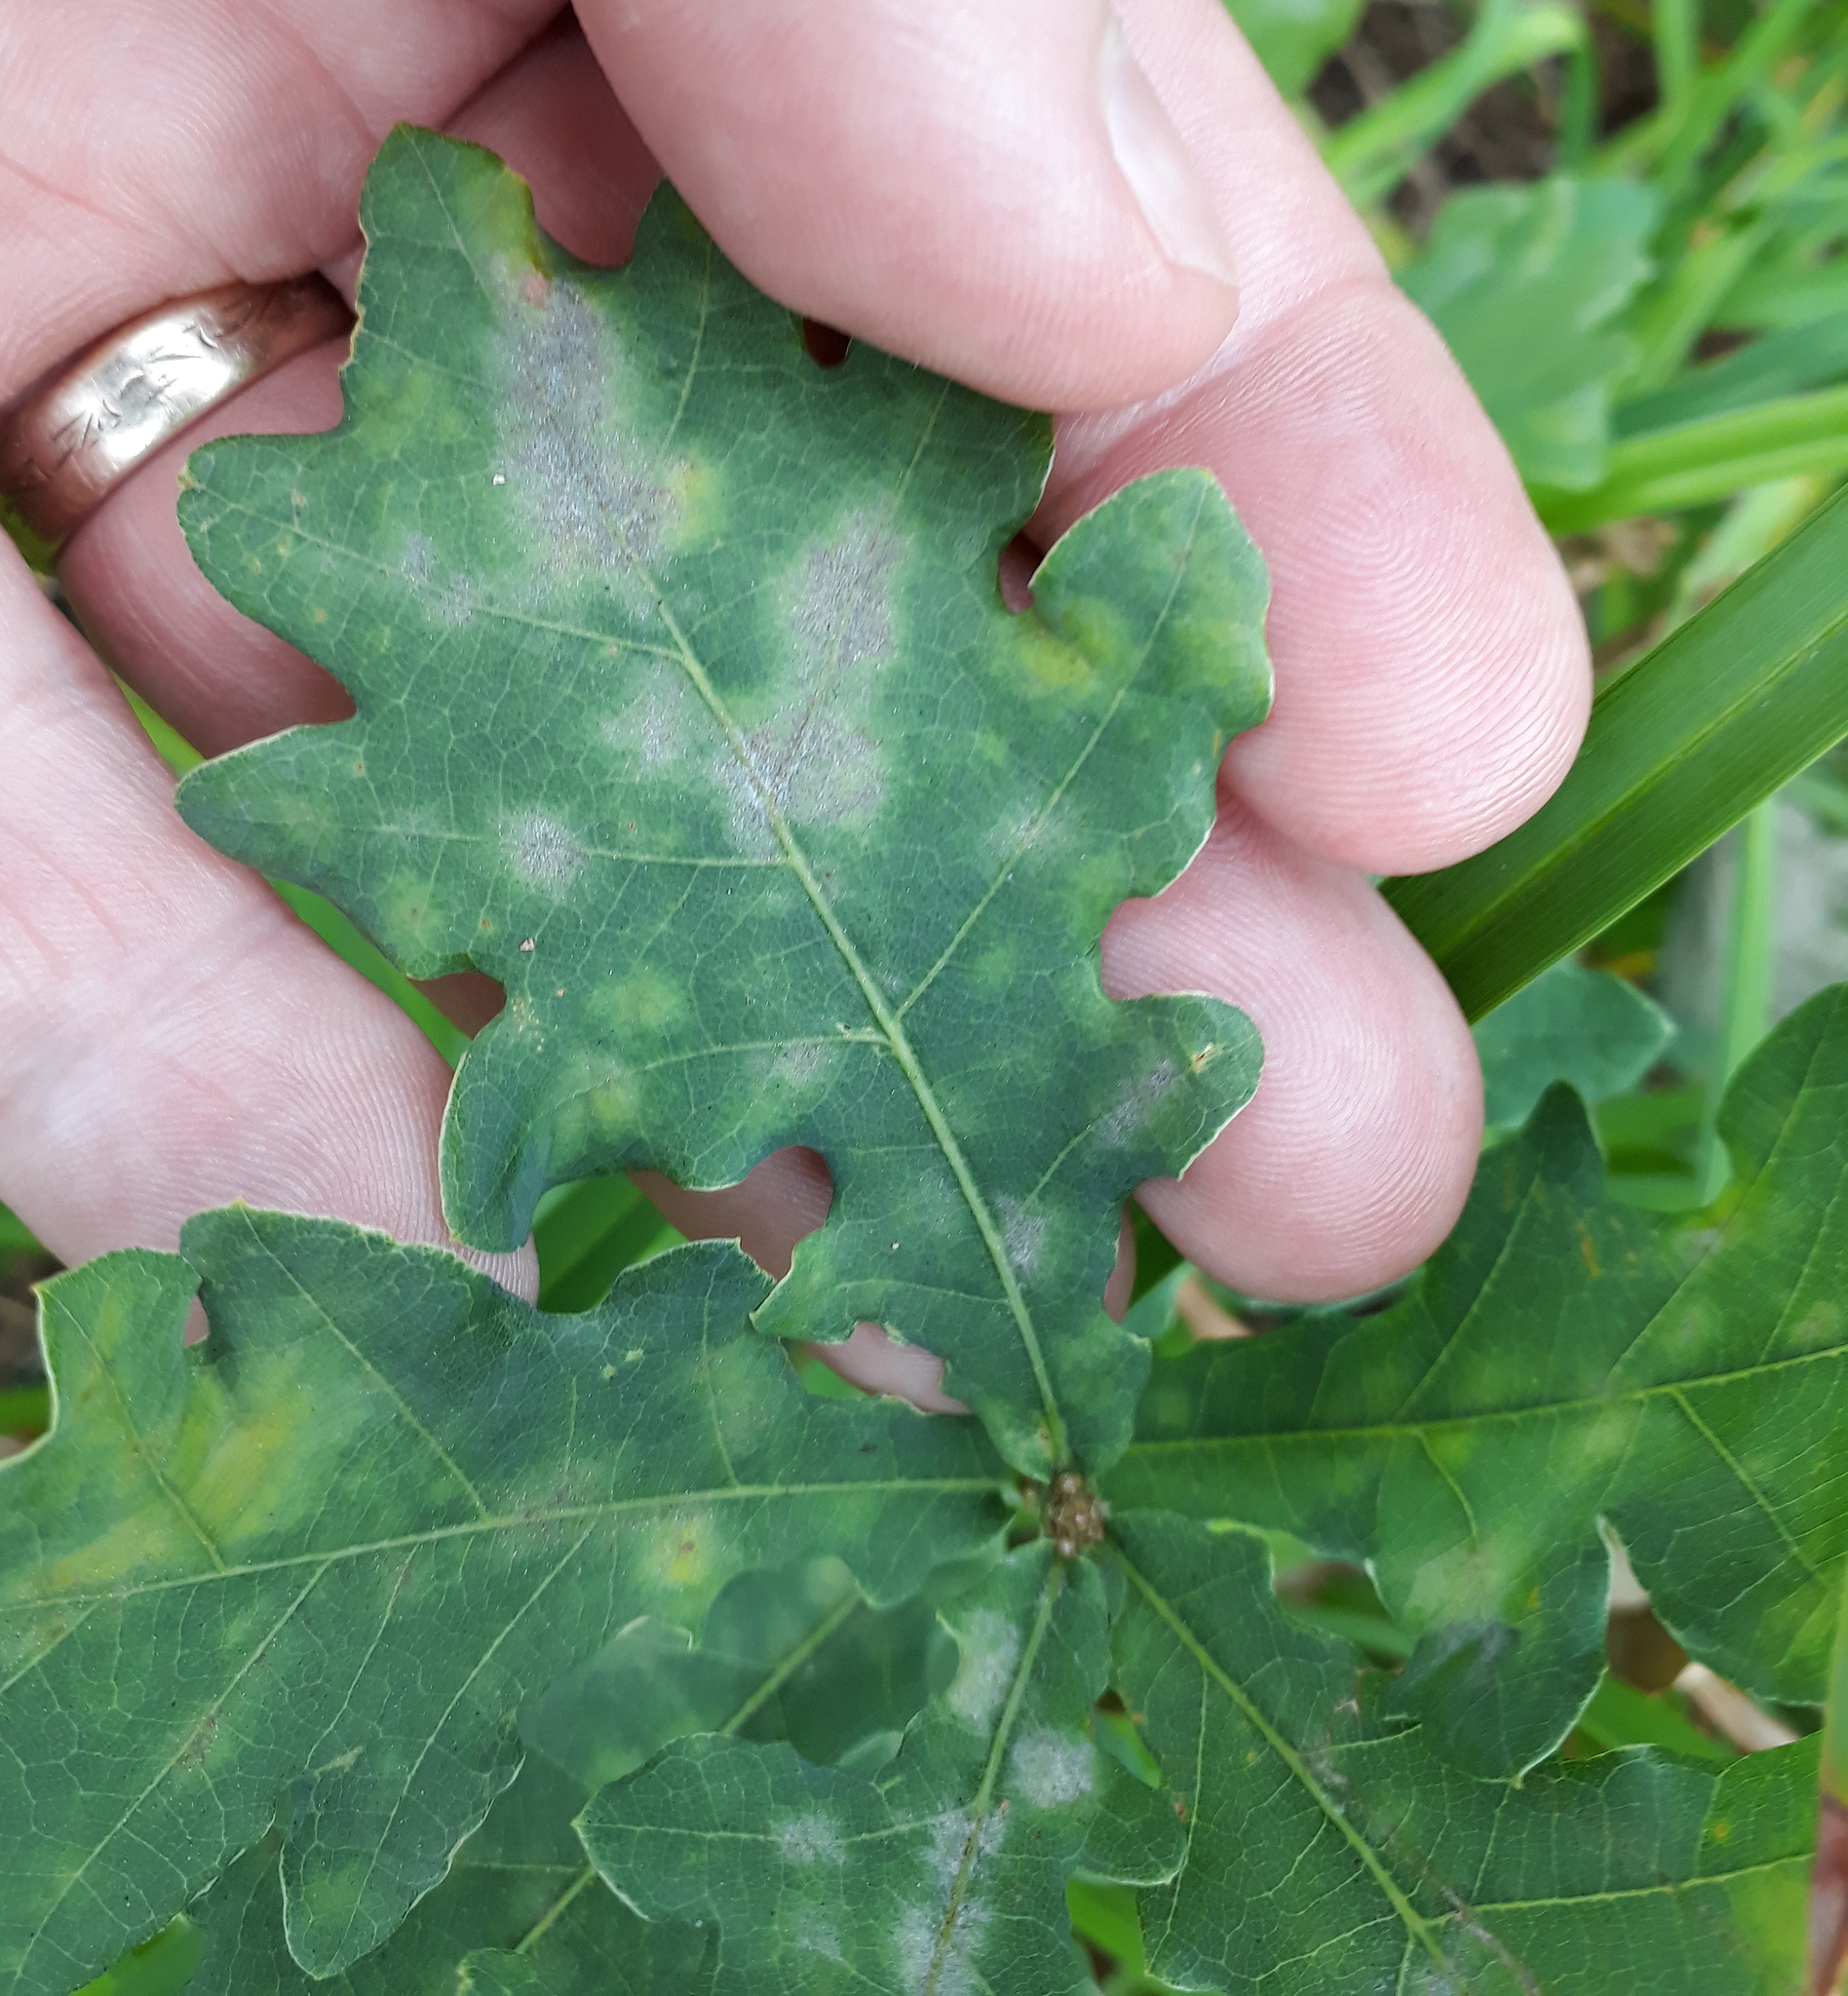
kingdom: Fungi
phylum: Ascomycota
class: Leotiomycetes
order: Helotiales
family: Erysiphaceae
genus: Erysiphe
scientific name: Erysiphe alphitoides
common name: Oak mildew
